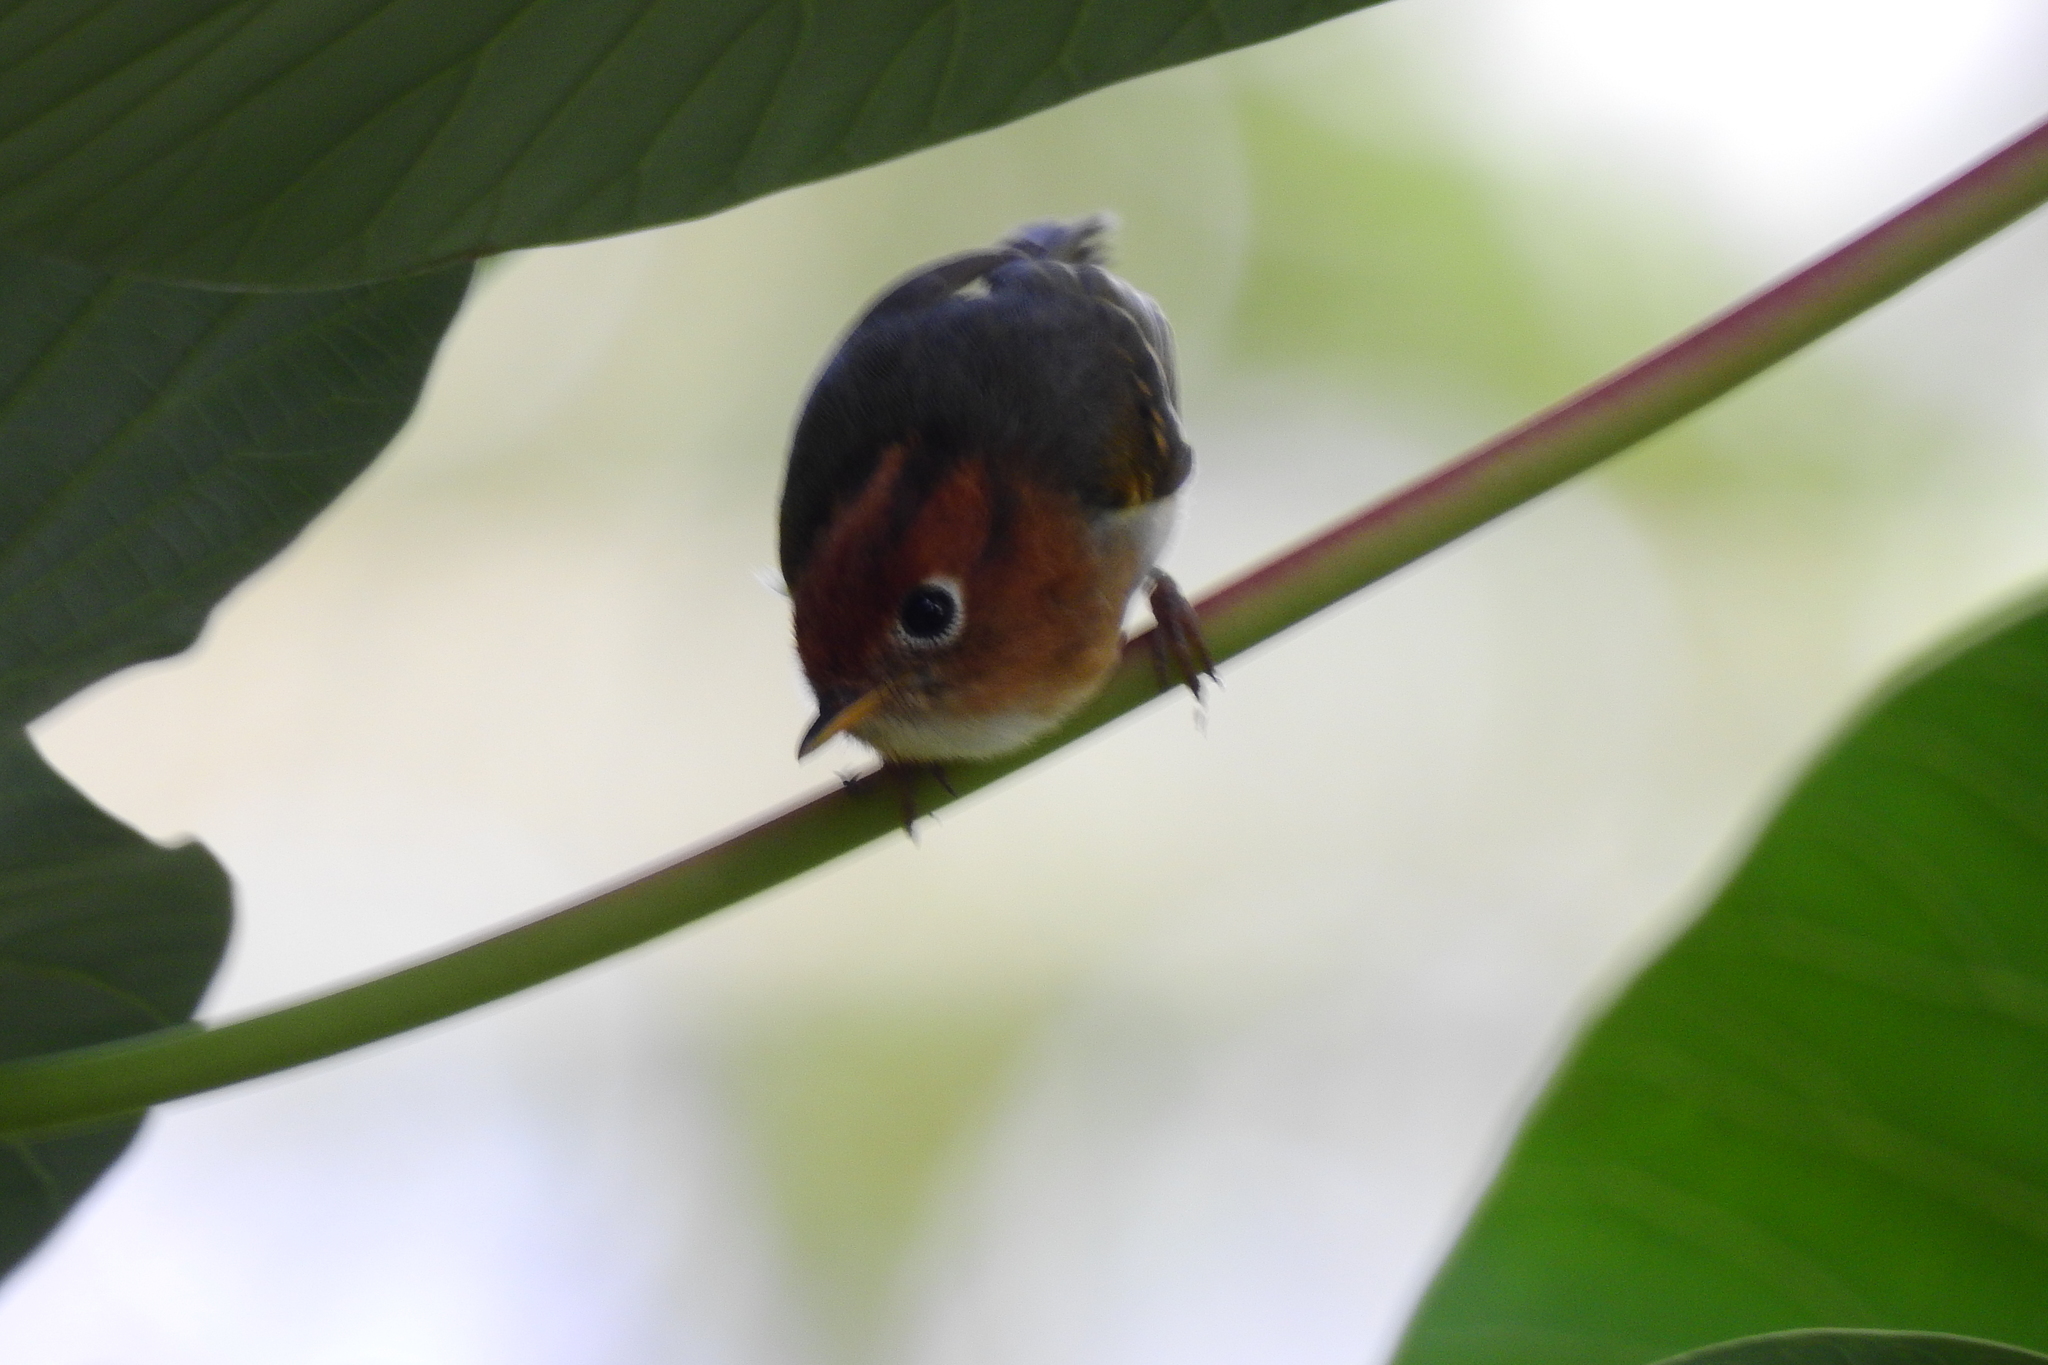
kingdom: Animalia
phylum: Chordata
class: Aves
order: Passeriformes
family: Phylloscopidae
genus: Seicercus
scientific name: Seicercus grammiceps
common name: Sunda warbler
